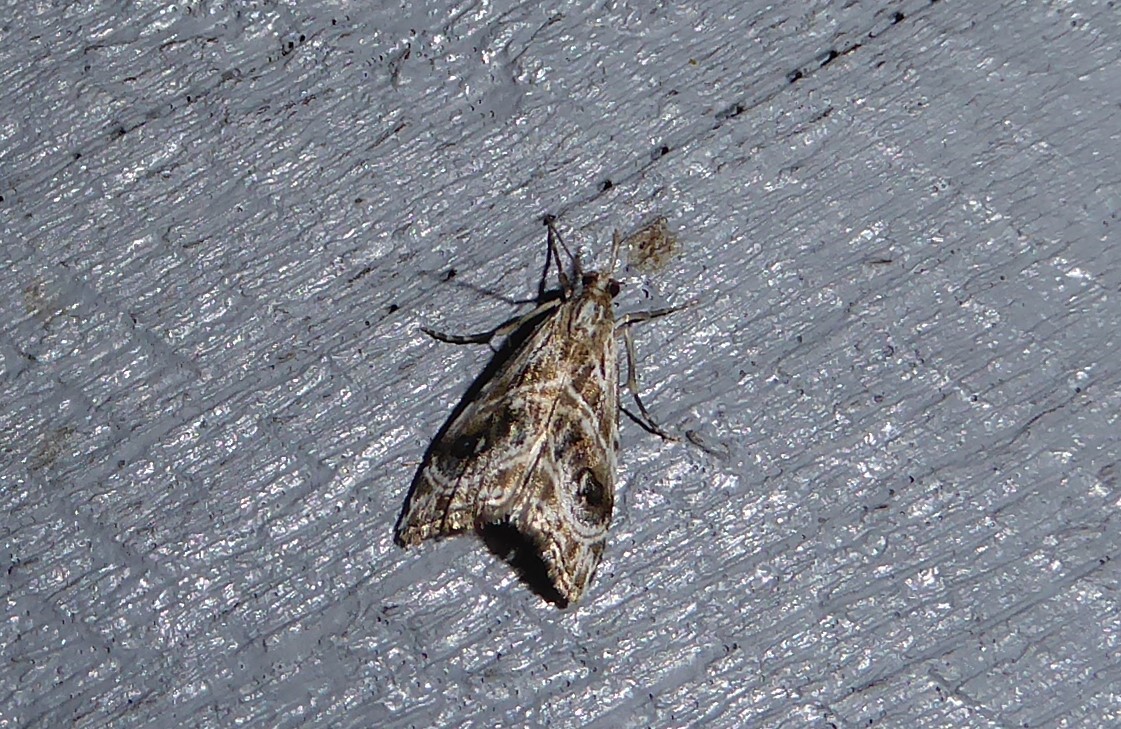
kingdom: Animalia
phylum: Arthropoda
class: Insecta
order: Lepidoptera
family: Crambidae
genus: Gadira
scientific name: Gadira acerella
